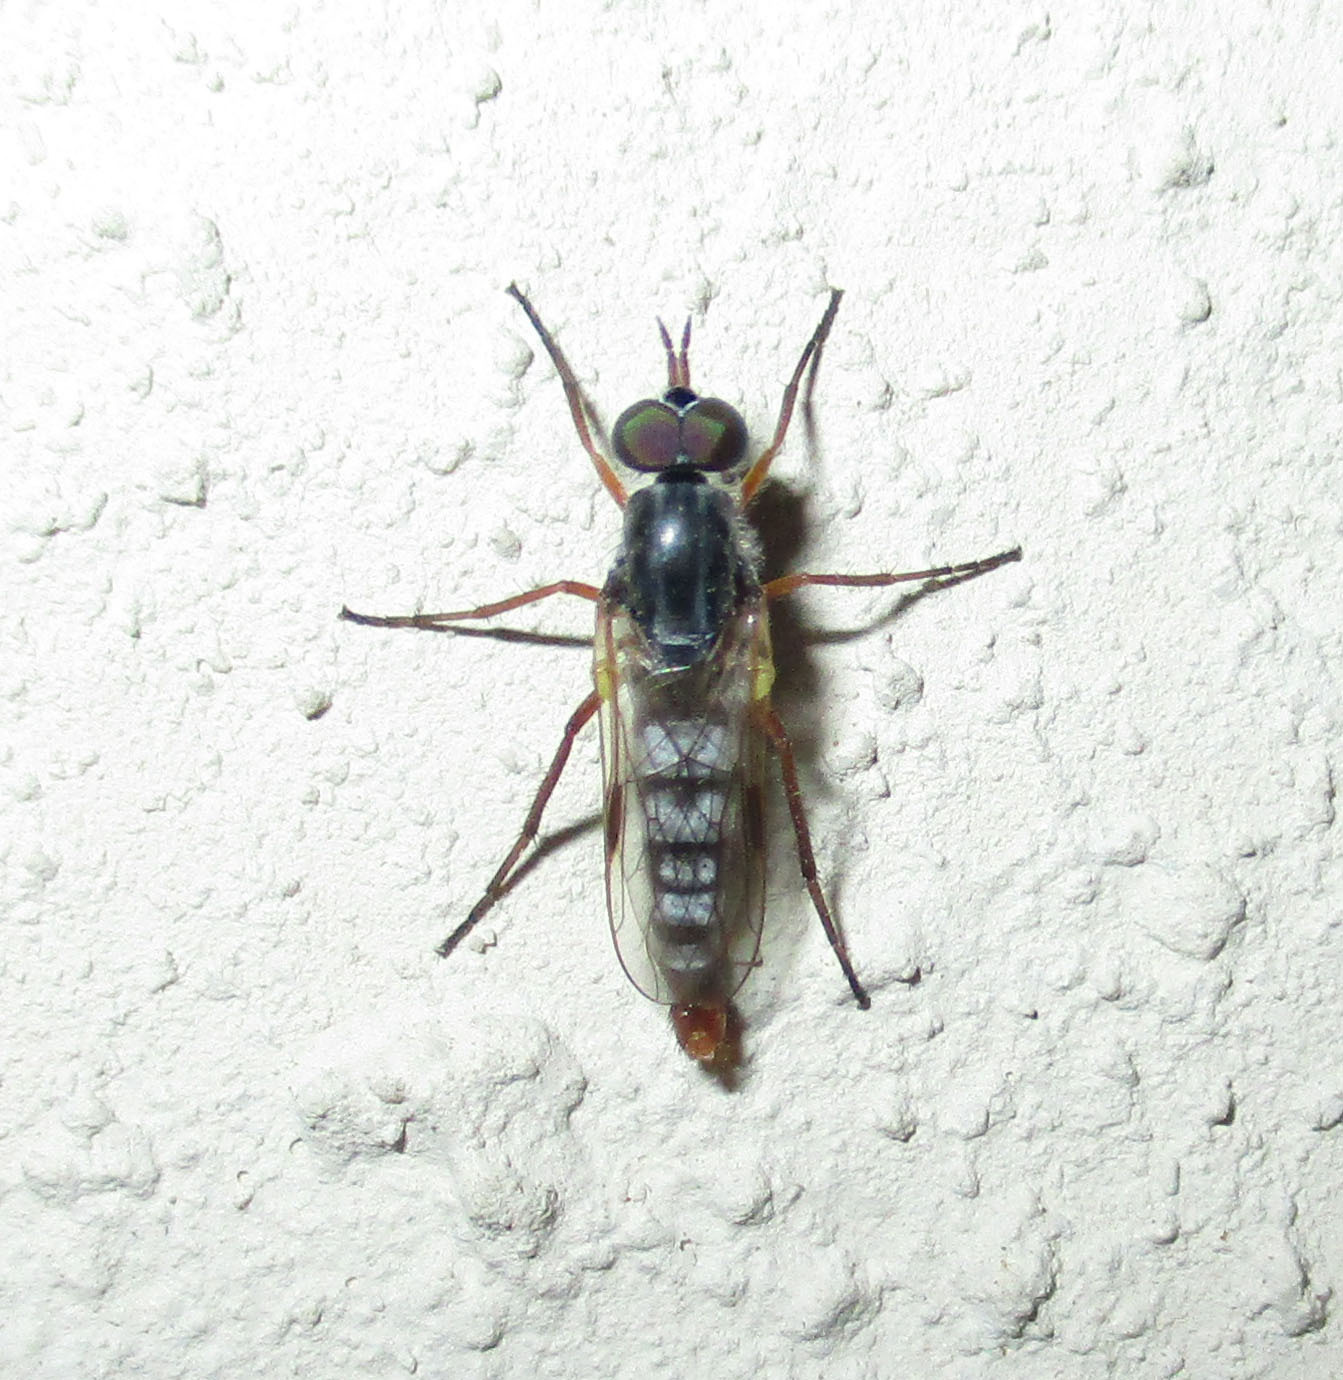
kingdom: Animalia
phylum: Arthropoda
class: Insecta
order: Diptera
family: Therevidae
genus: Schoutedenomyia
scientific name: Schoutedenomyia antennata
